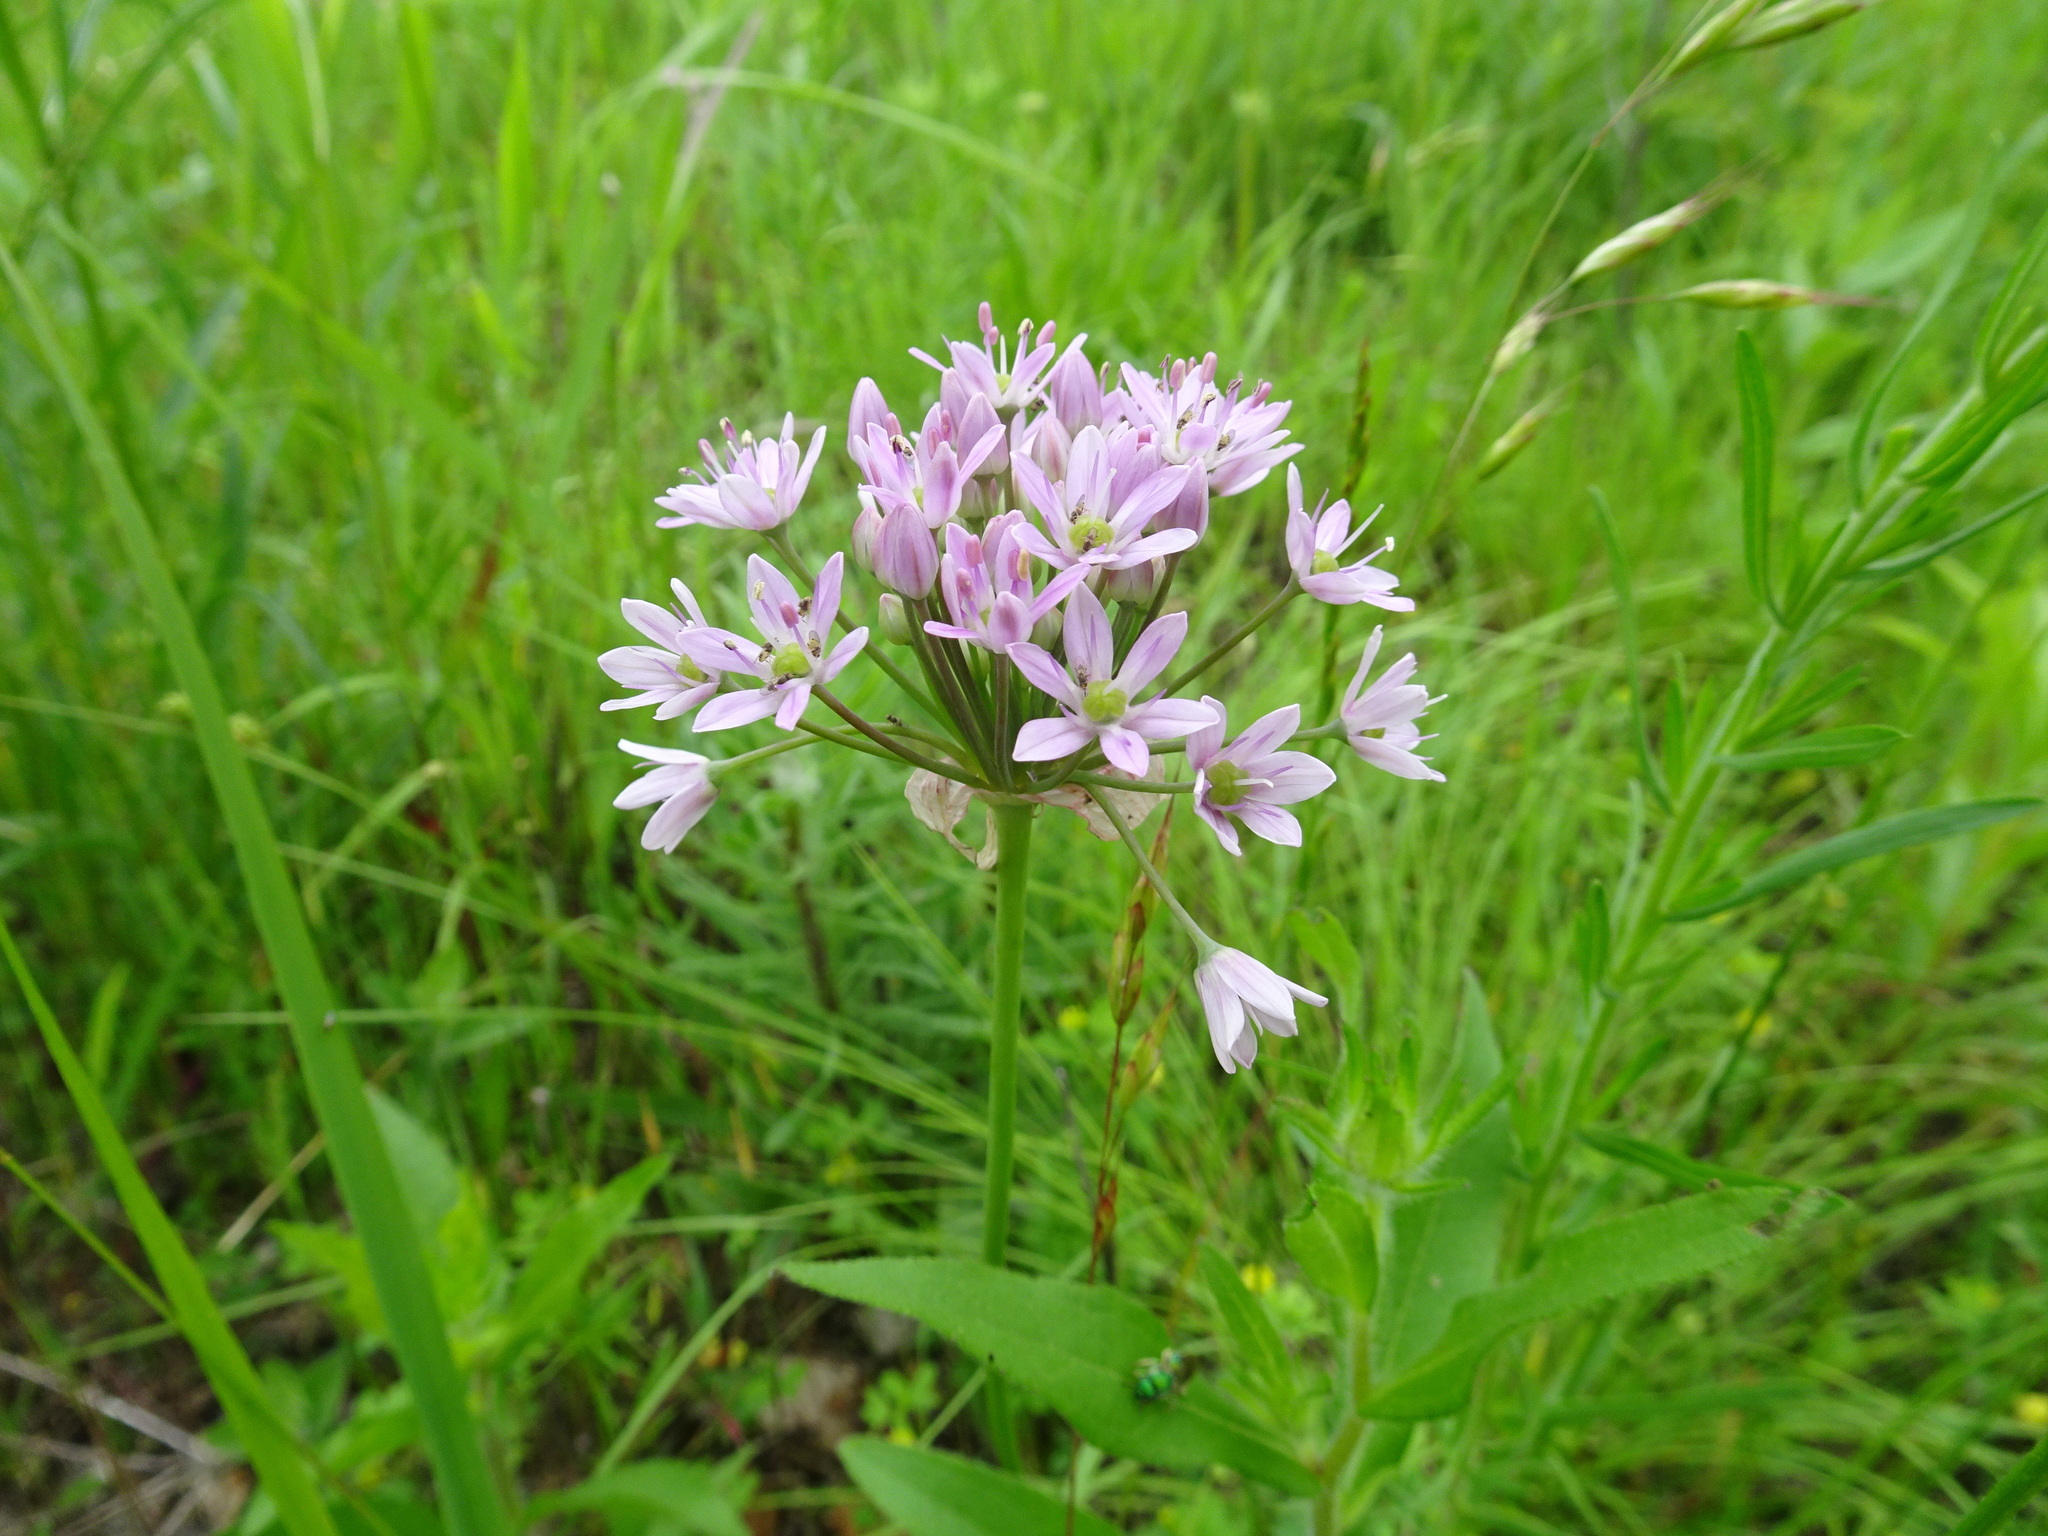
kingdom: Plantae
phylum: Tracheophyta
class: Liliopsida
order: Asparagales
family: Amaryllidaceae
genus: Allium
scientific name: Allium canadense
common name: Meadow garlic
